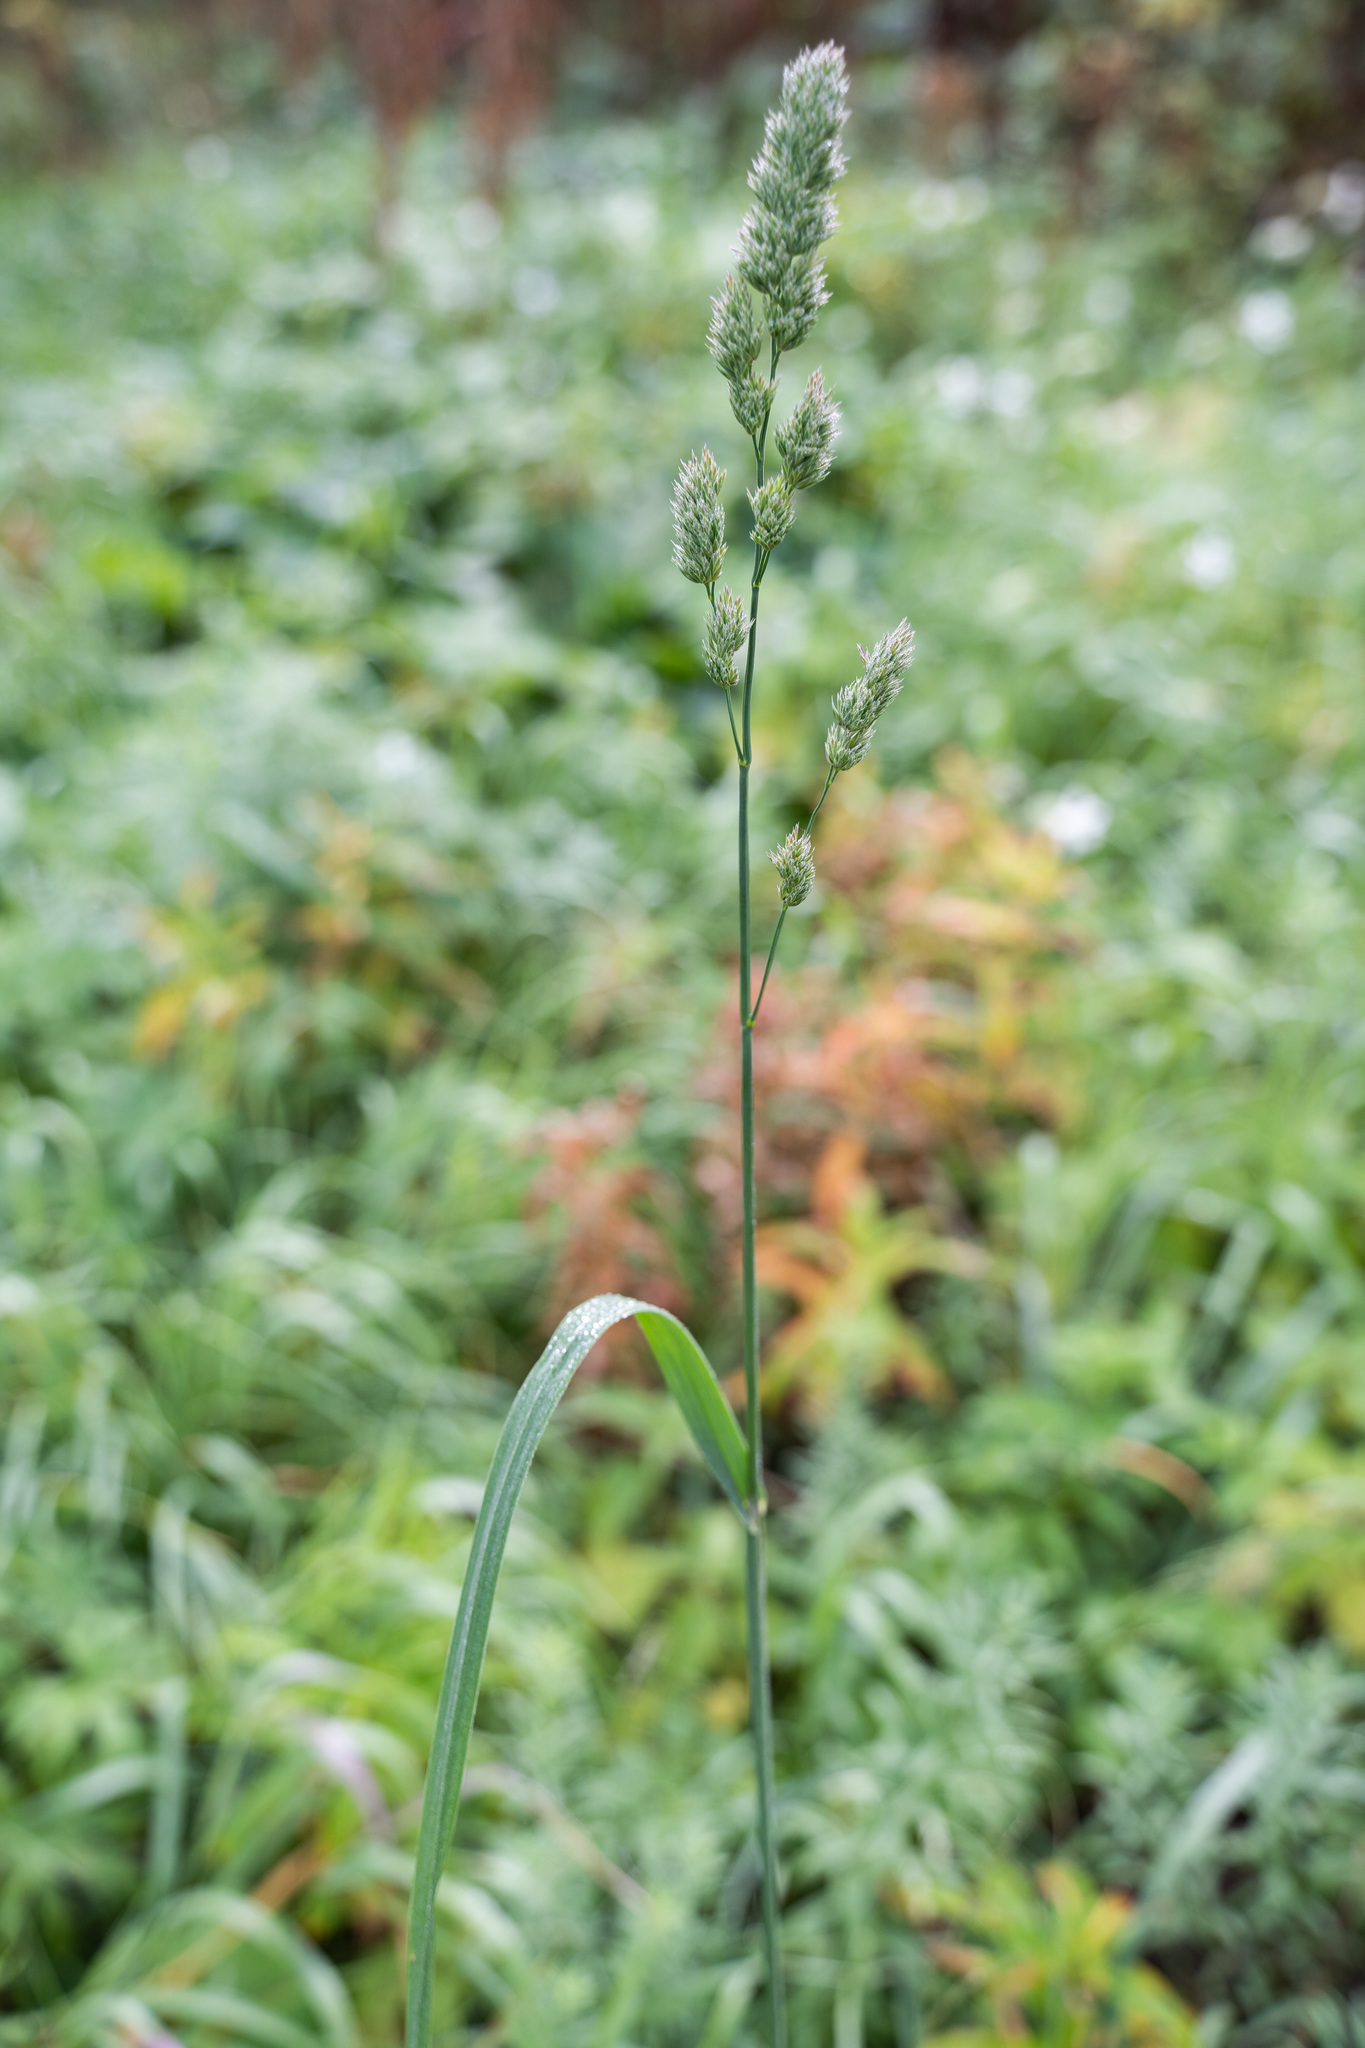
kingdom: Plantae
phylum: Tracheophyta
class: Liliopsida
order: Poales
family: Poaceae
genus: Dactylis
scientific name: Dactylis glomerata
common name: Orchardgrass
